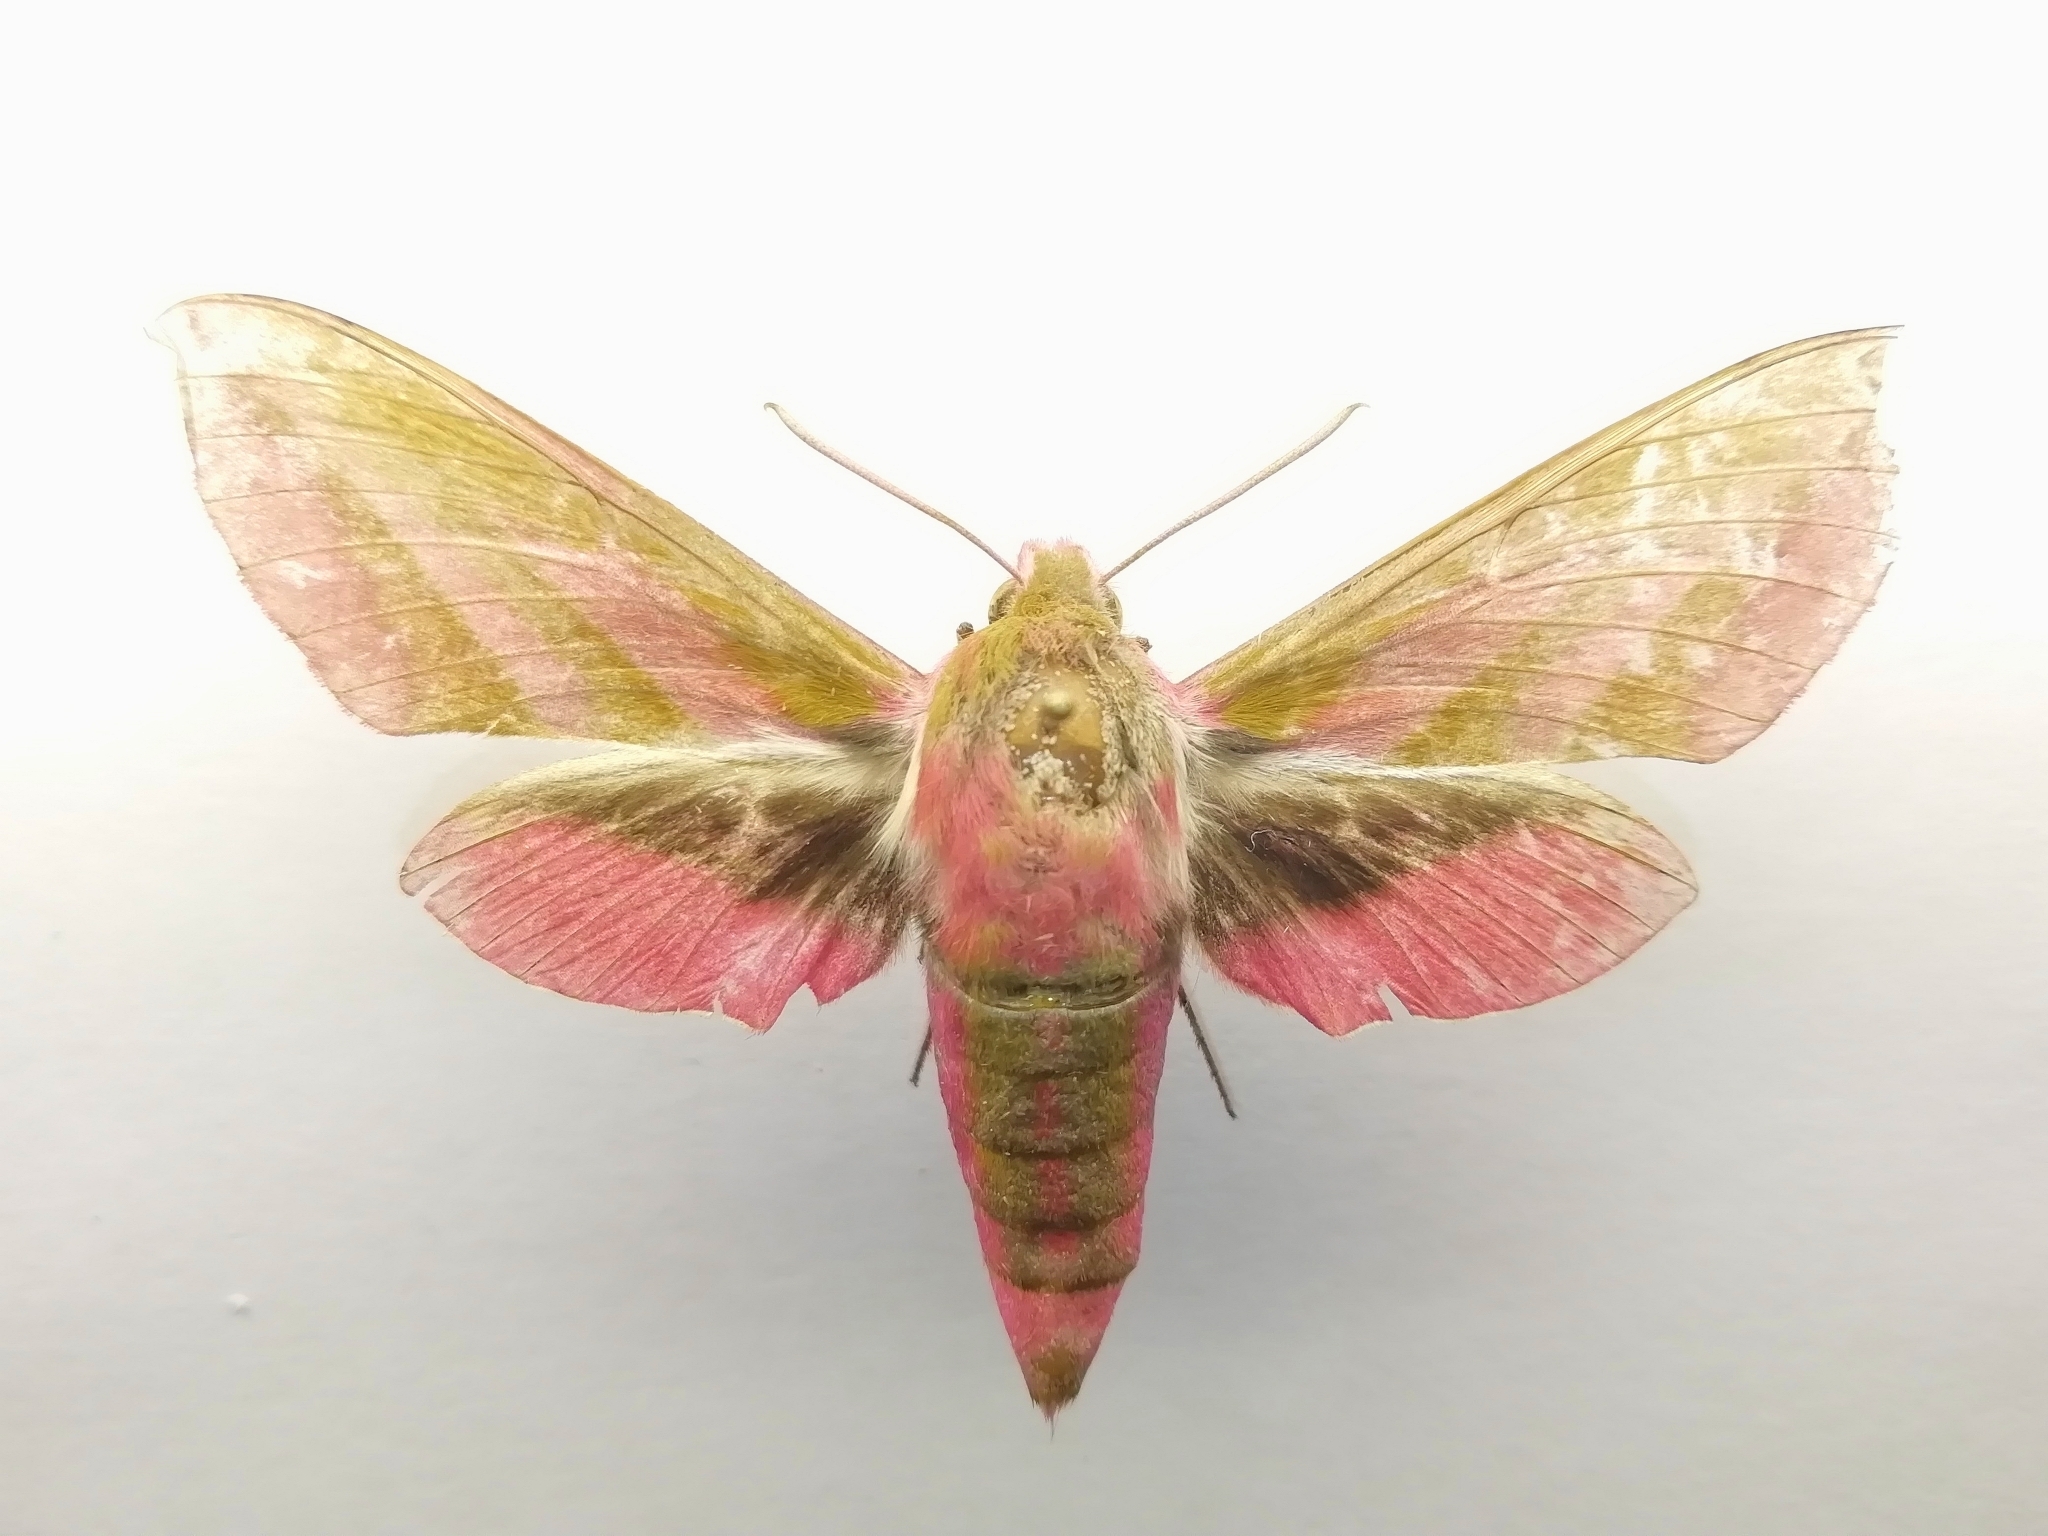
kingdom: Animalia
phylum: Arthropoda
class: Insecta
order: Lepidoptera
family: Sphingidae
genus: Deilephila
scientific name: Deilephila elpenor
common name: Elephant hawk-moth
